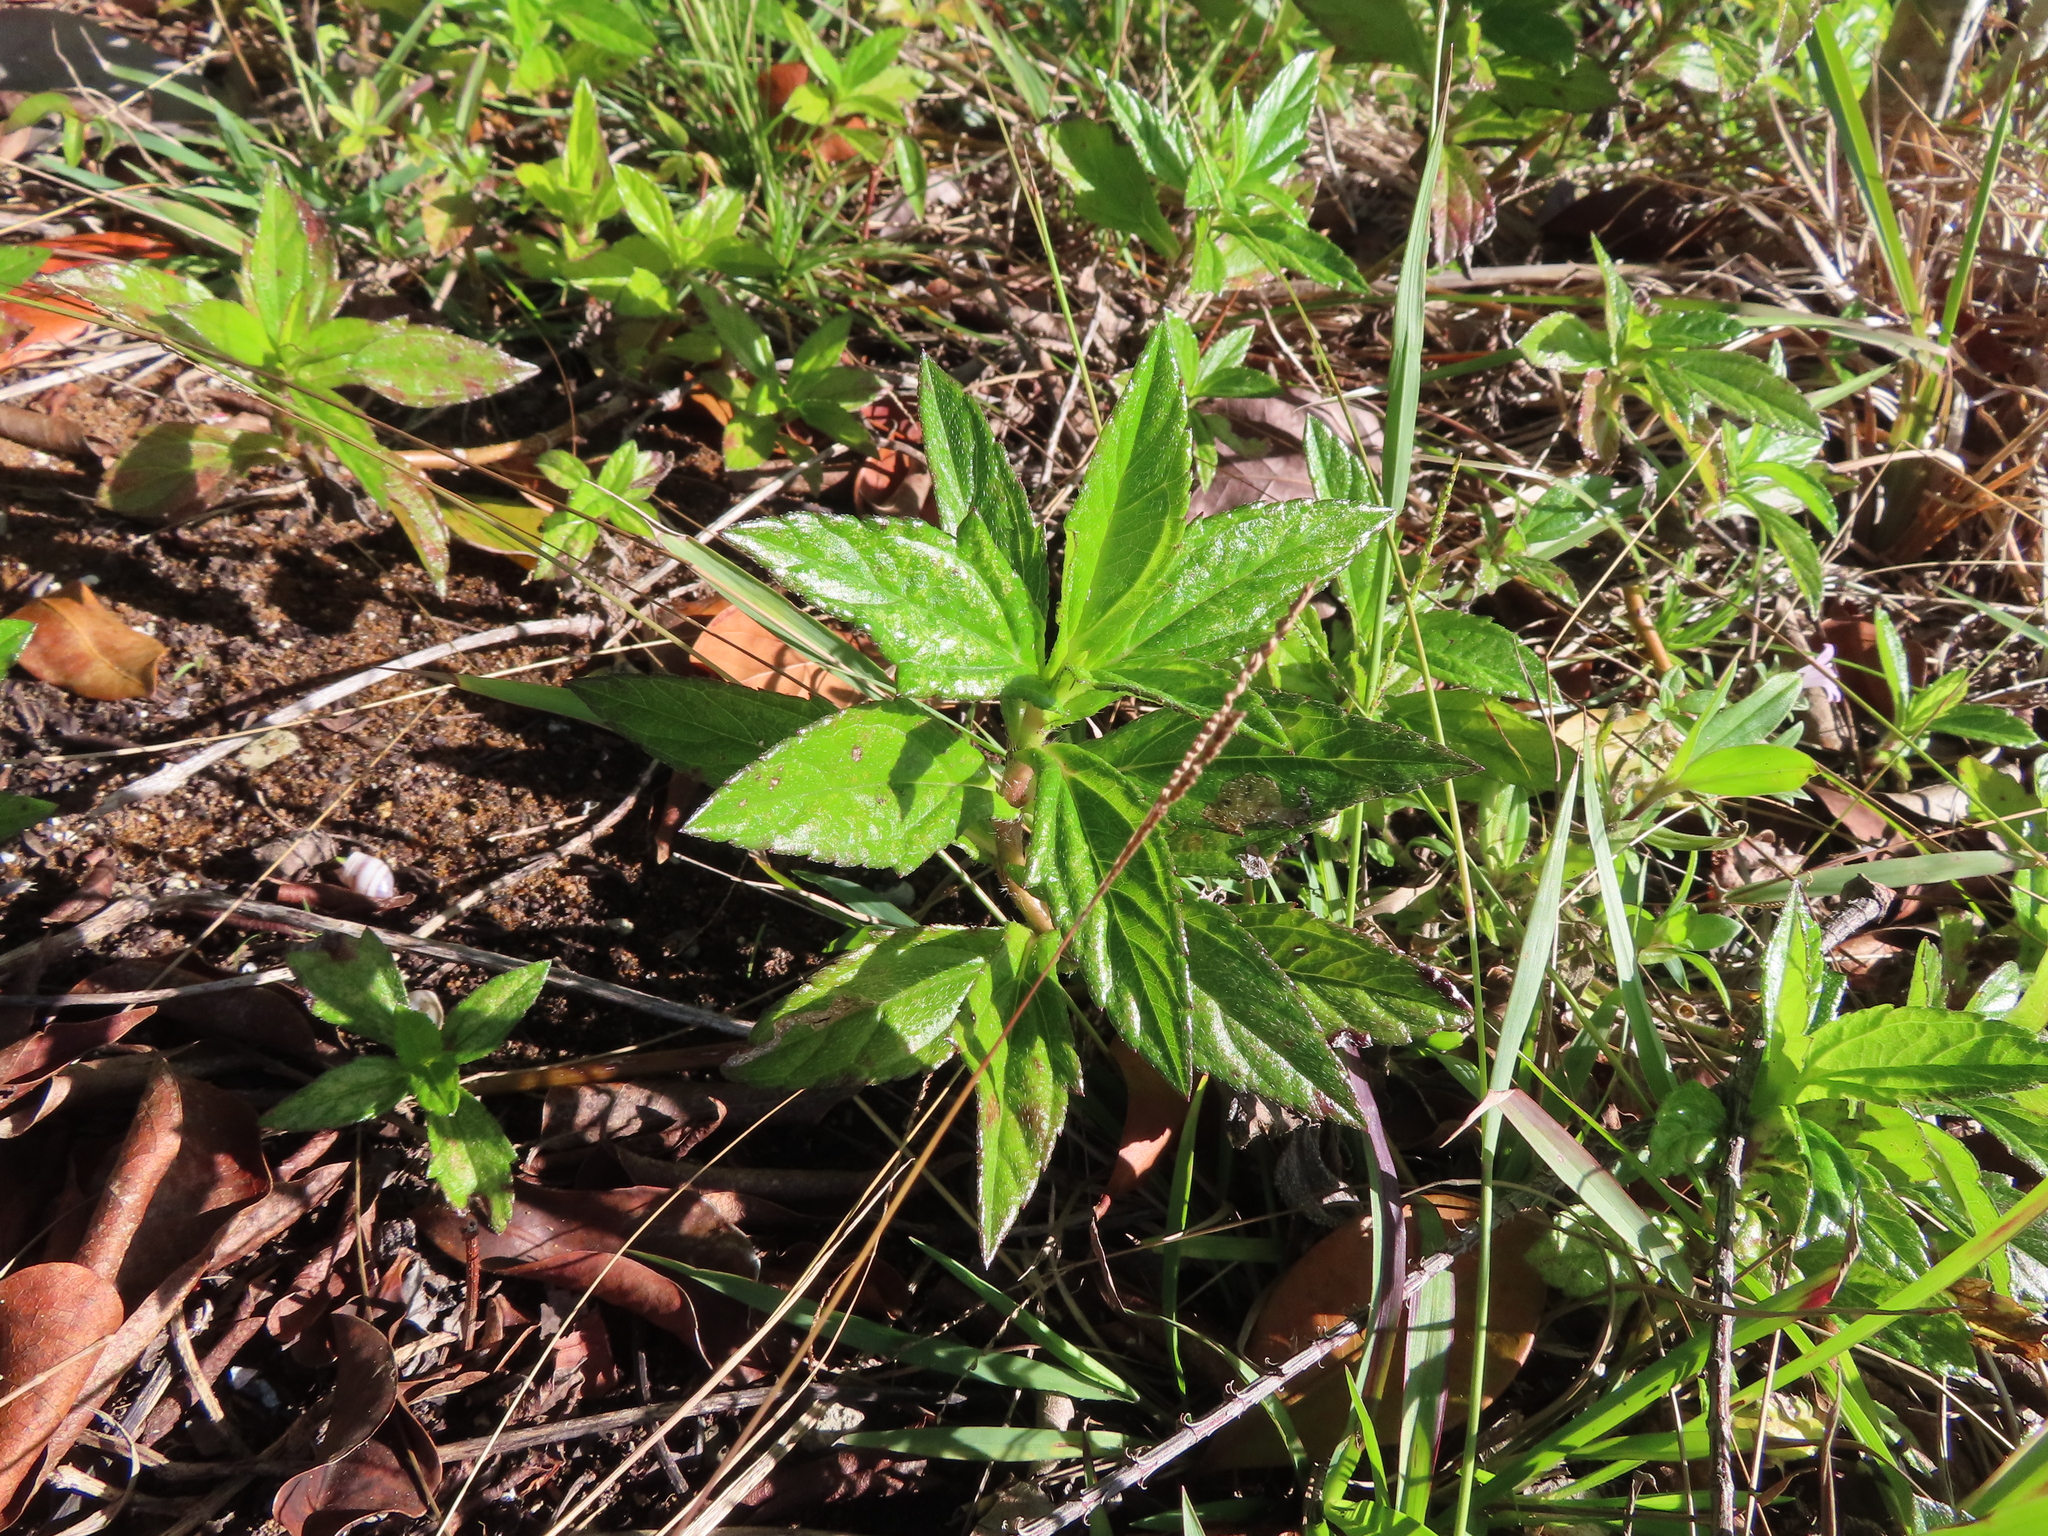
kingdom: Plantae
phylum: Tracheophyta
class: Magnoliopsida
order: Asterales
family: Asteraceae
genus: Sphagneticola
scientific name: Sphagneticola trilobata
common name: Bay biscayne creeping-oxeye
